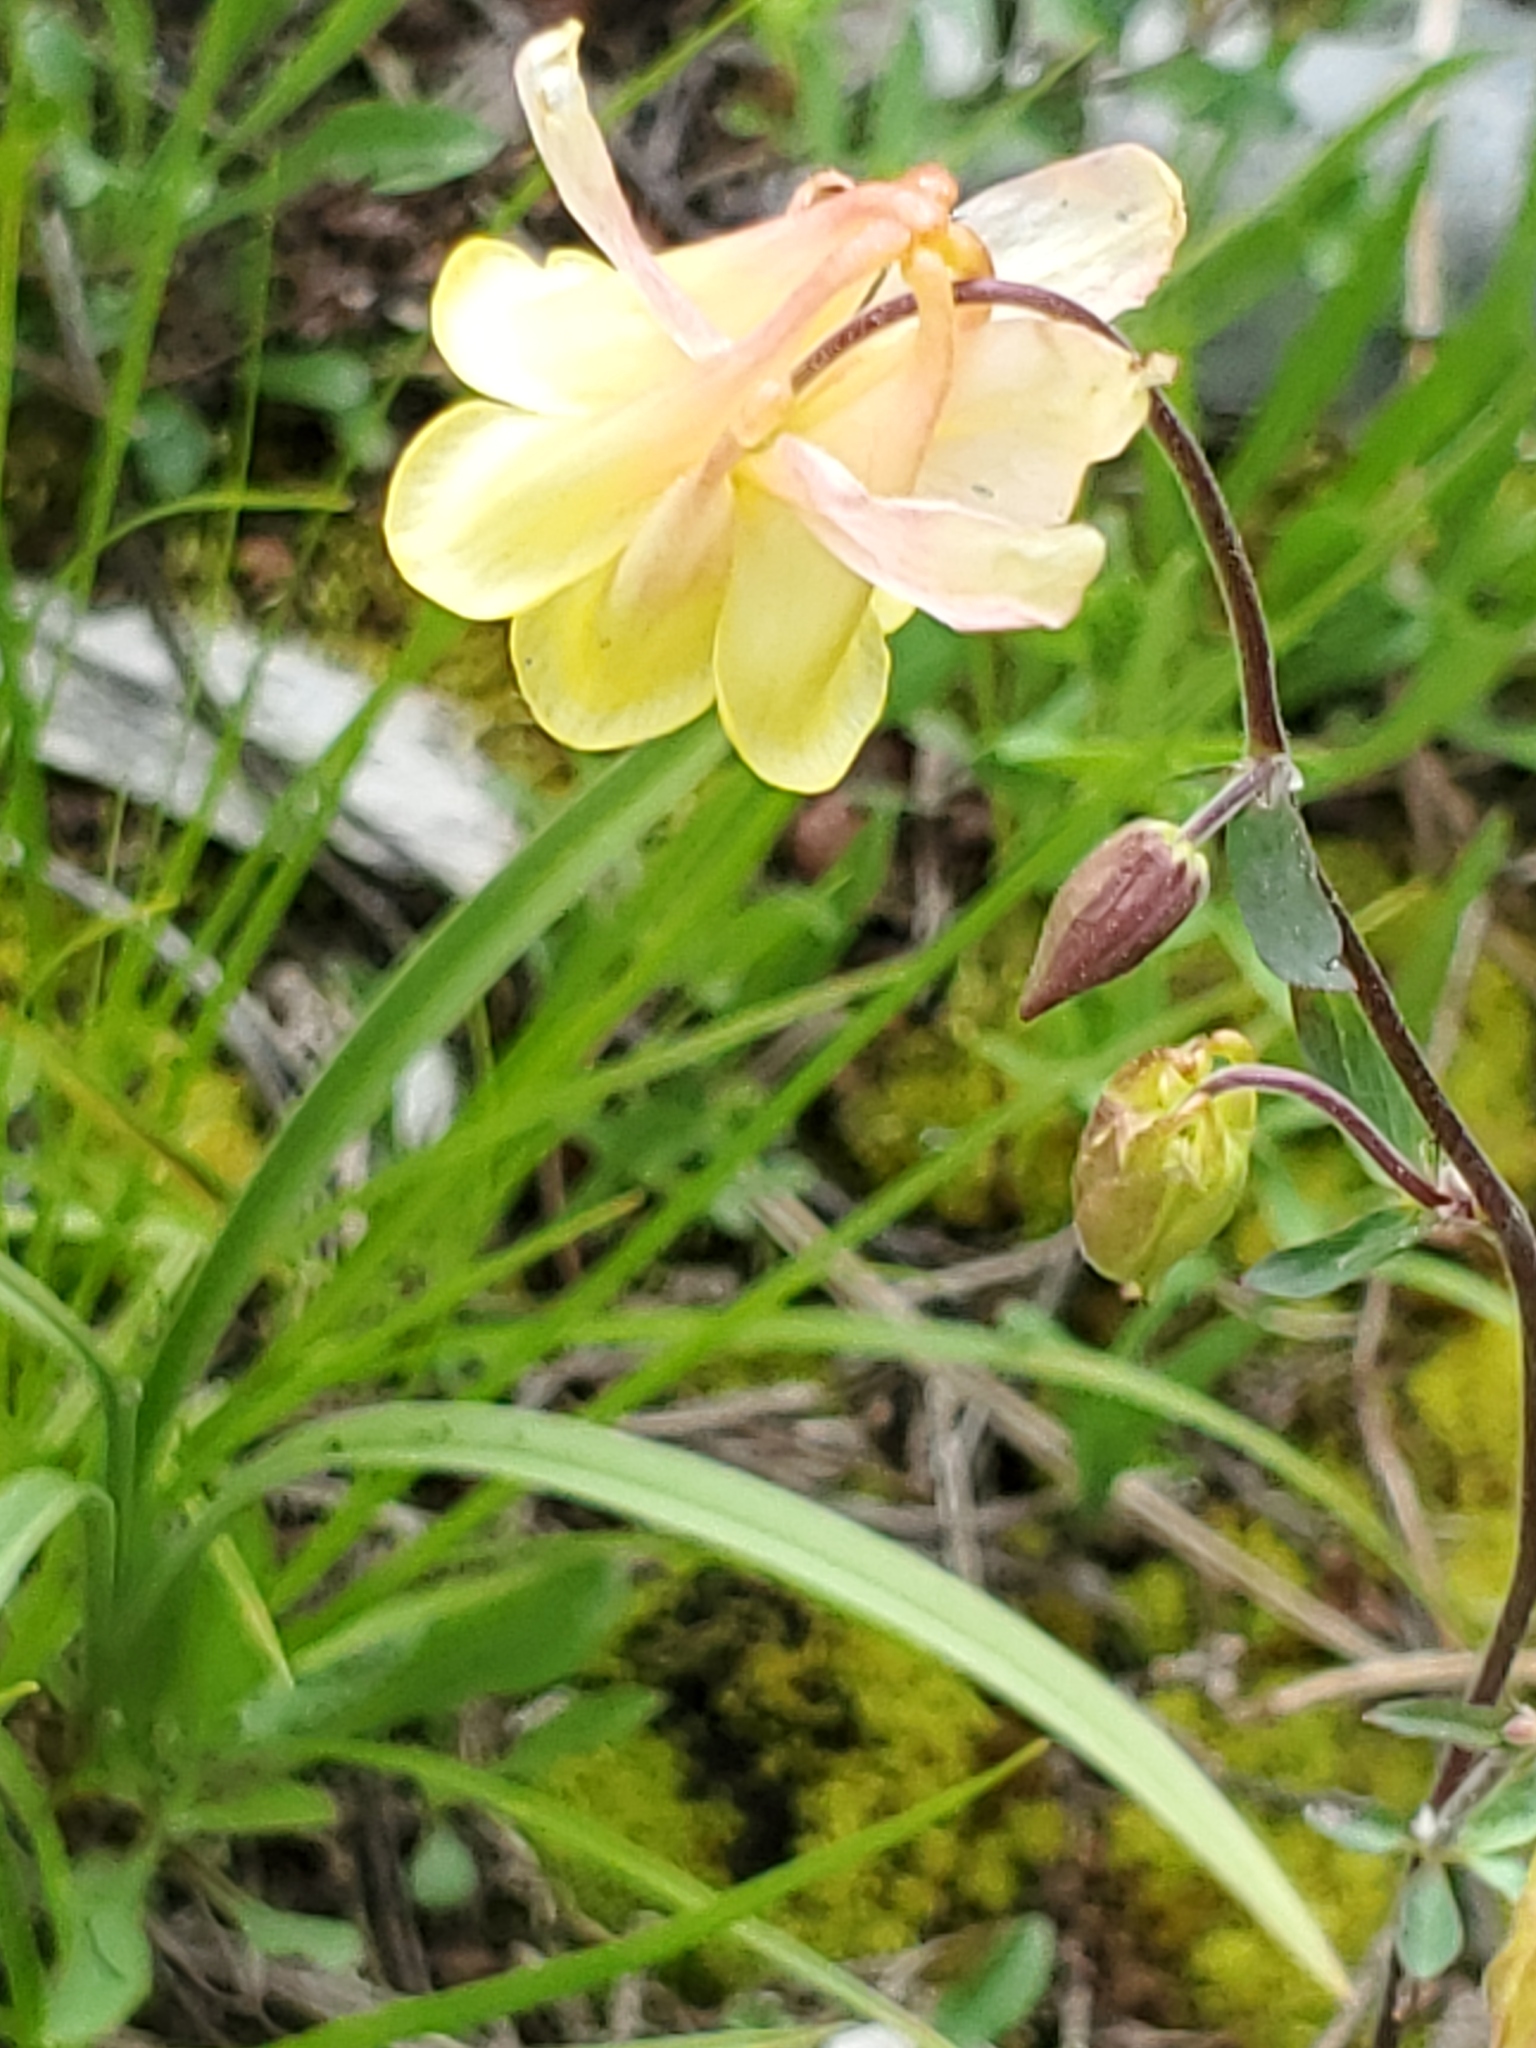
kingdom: Plantae
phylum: Tracheophyta
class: Magnoliopsida
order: Ranunculales
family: Ranunculaceae
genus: Aquilegia
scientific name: Aquilegia flavescens
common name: Yellow columbine
